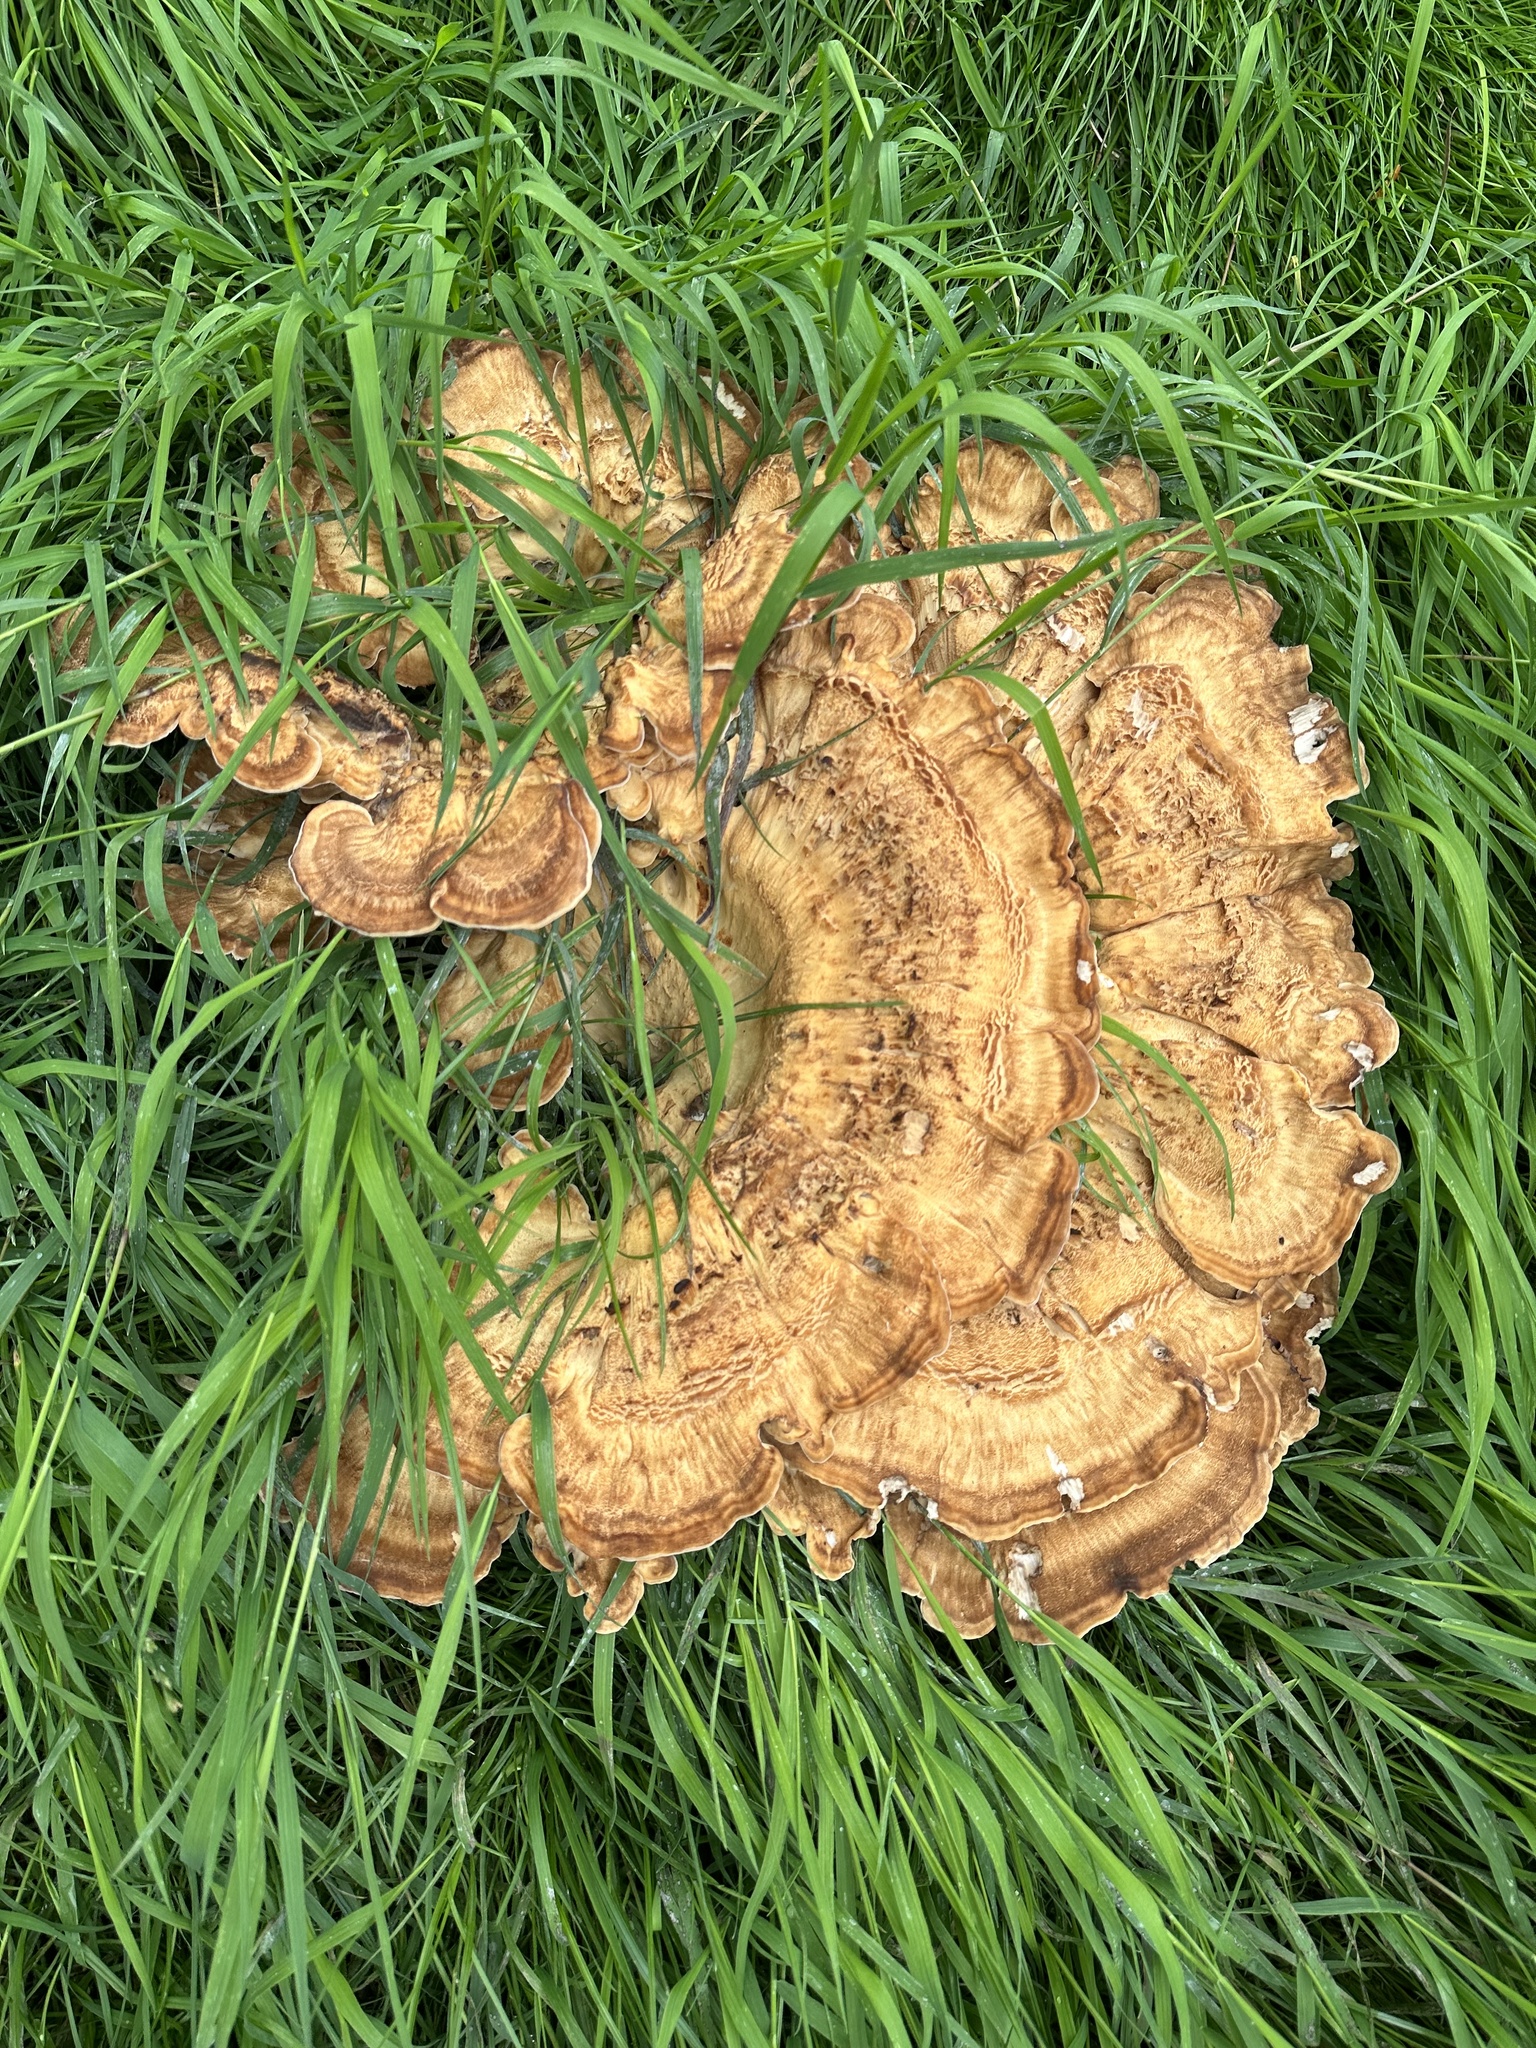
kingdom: Fungi
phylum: Basidiomycota
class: Agaricomycetes
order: Polyporales
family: Meripilaceae
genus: Meripilus
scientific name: Meripilus giganteus
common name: Giant polypore
